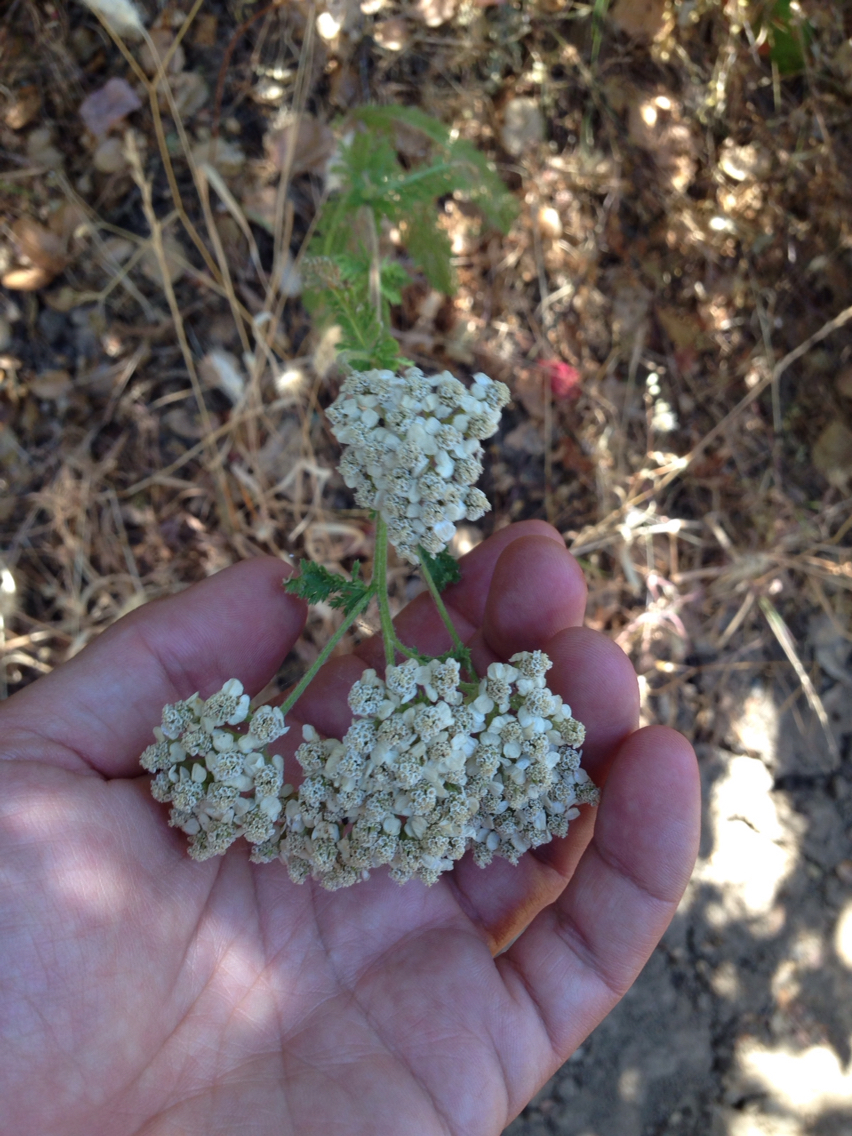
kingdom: Plantae
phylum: Tracheophyta
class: Magnoliopsida
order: Asterales
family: Asteraceae
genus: Achillea
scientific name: Achillea millefolium
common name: Yarrow
